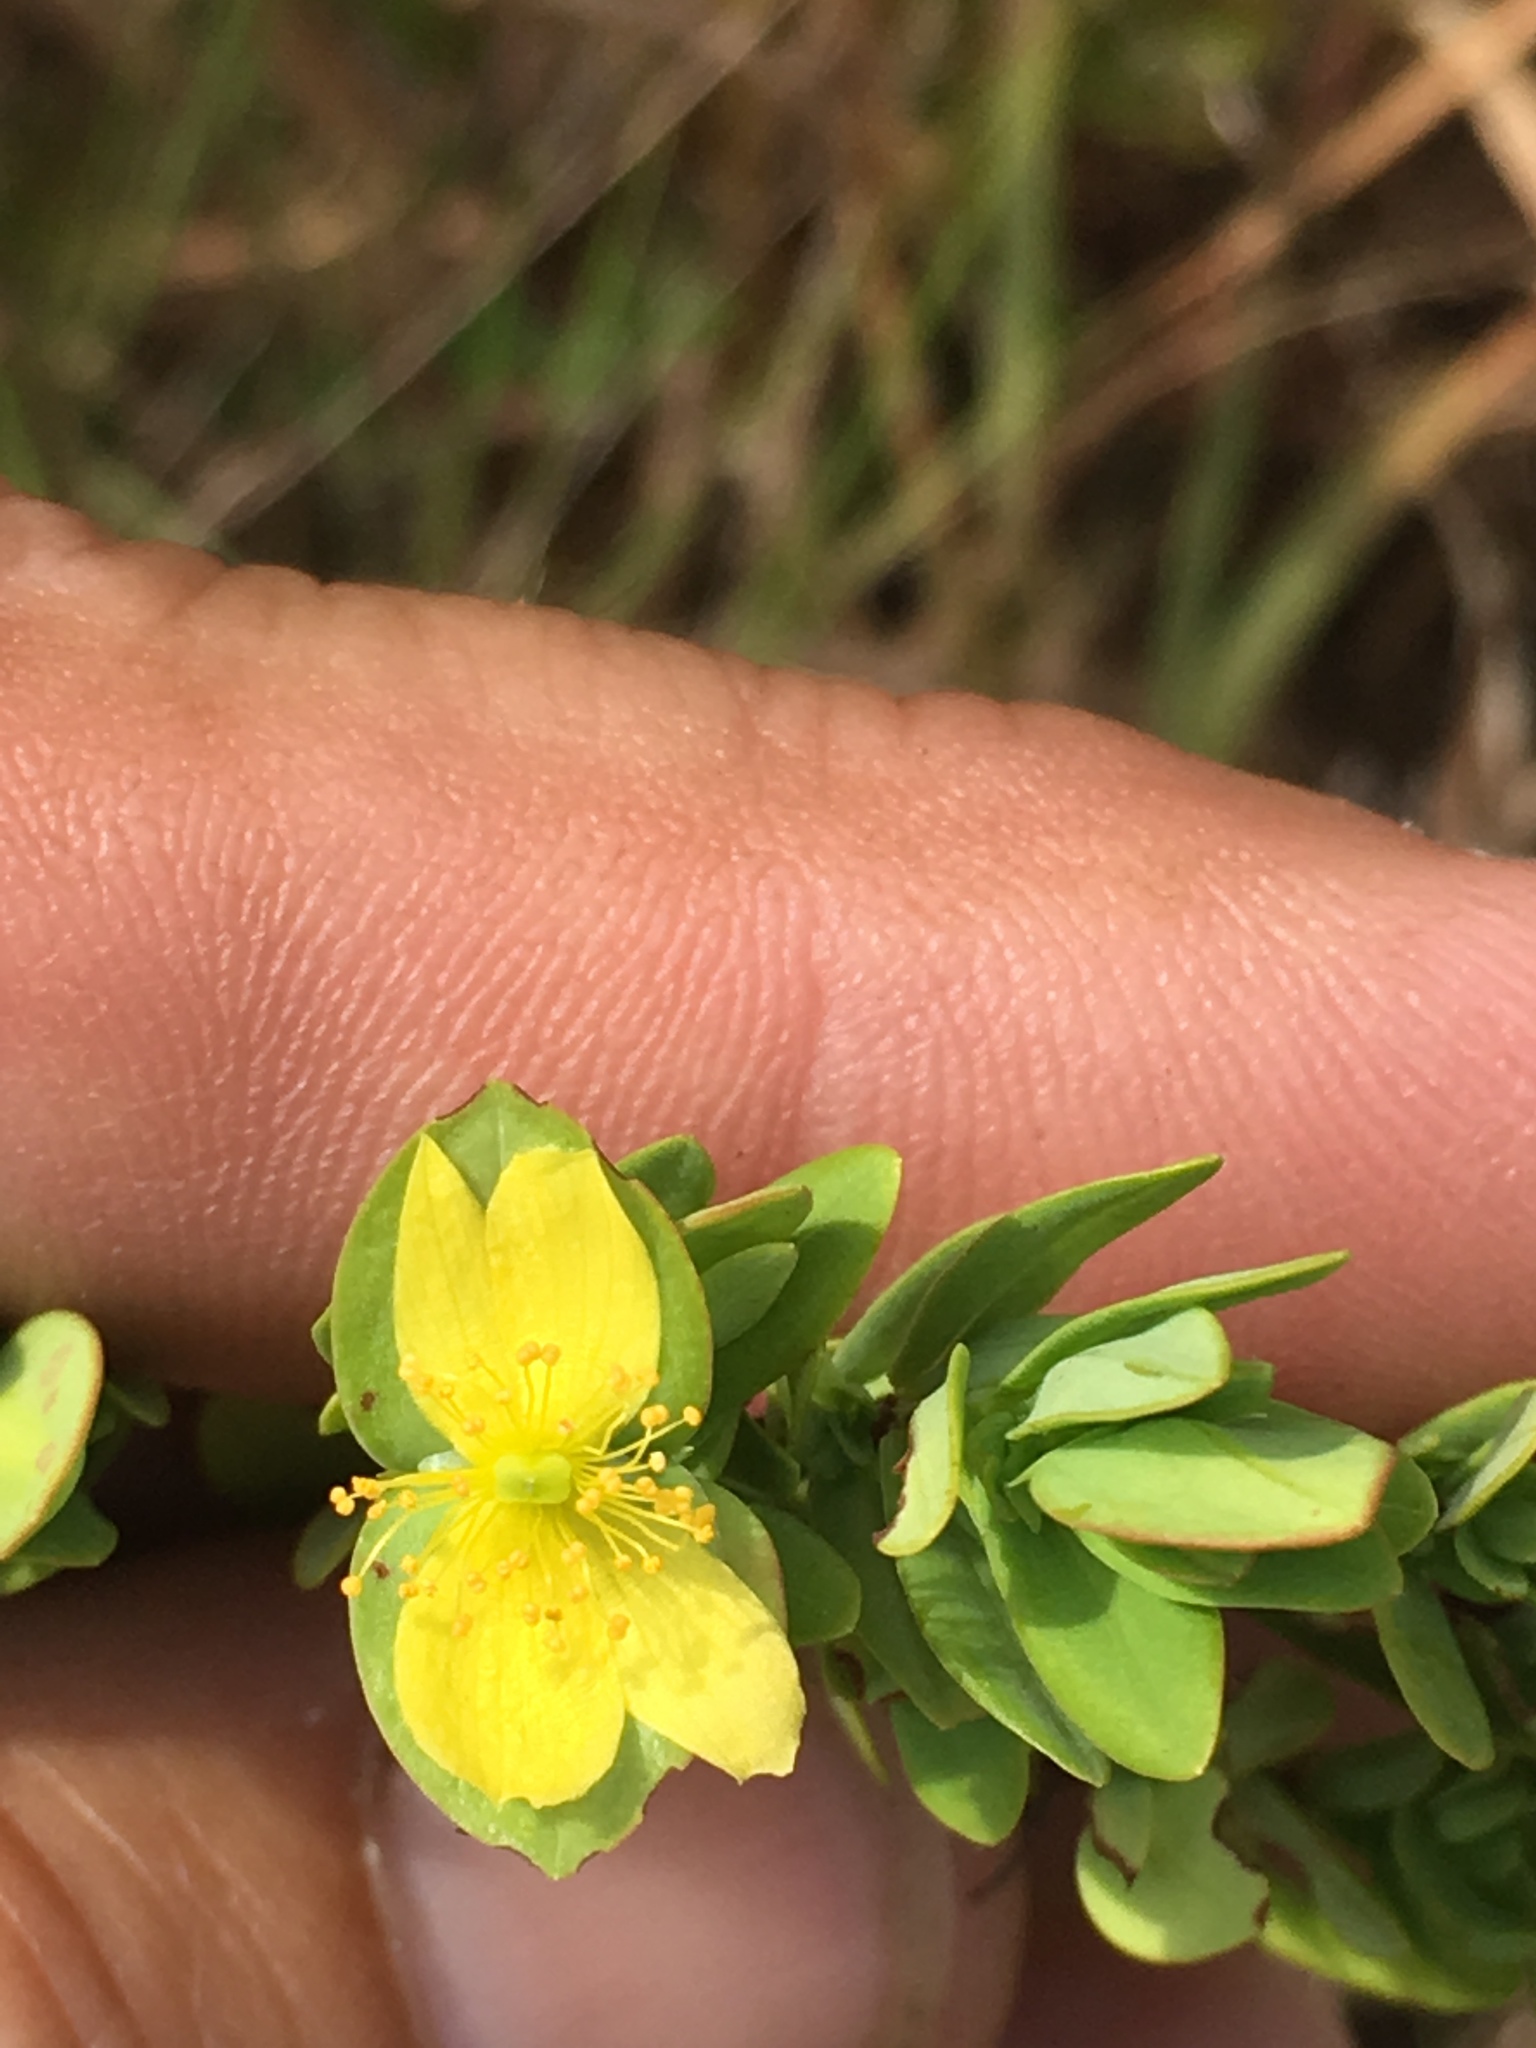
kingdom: Plantae
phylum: Tracheophyta
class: Magnoliopsida
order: Malpighiales
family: Hypericaceae
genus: Hypericum
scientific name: Hypericum crux-andreae
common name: St.-peter's-wort
